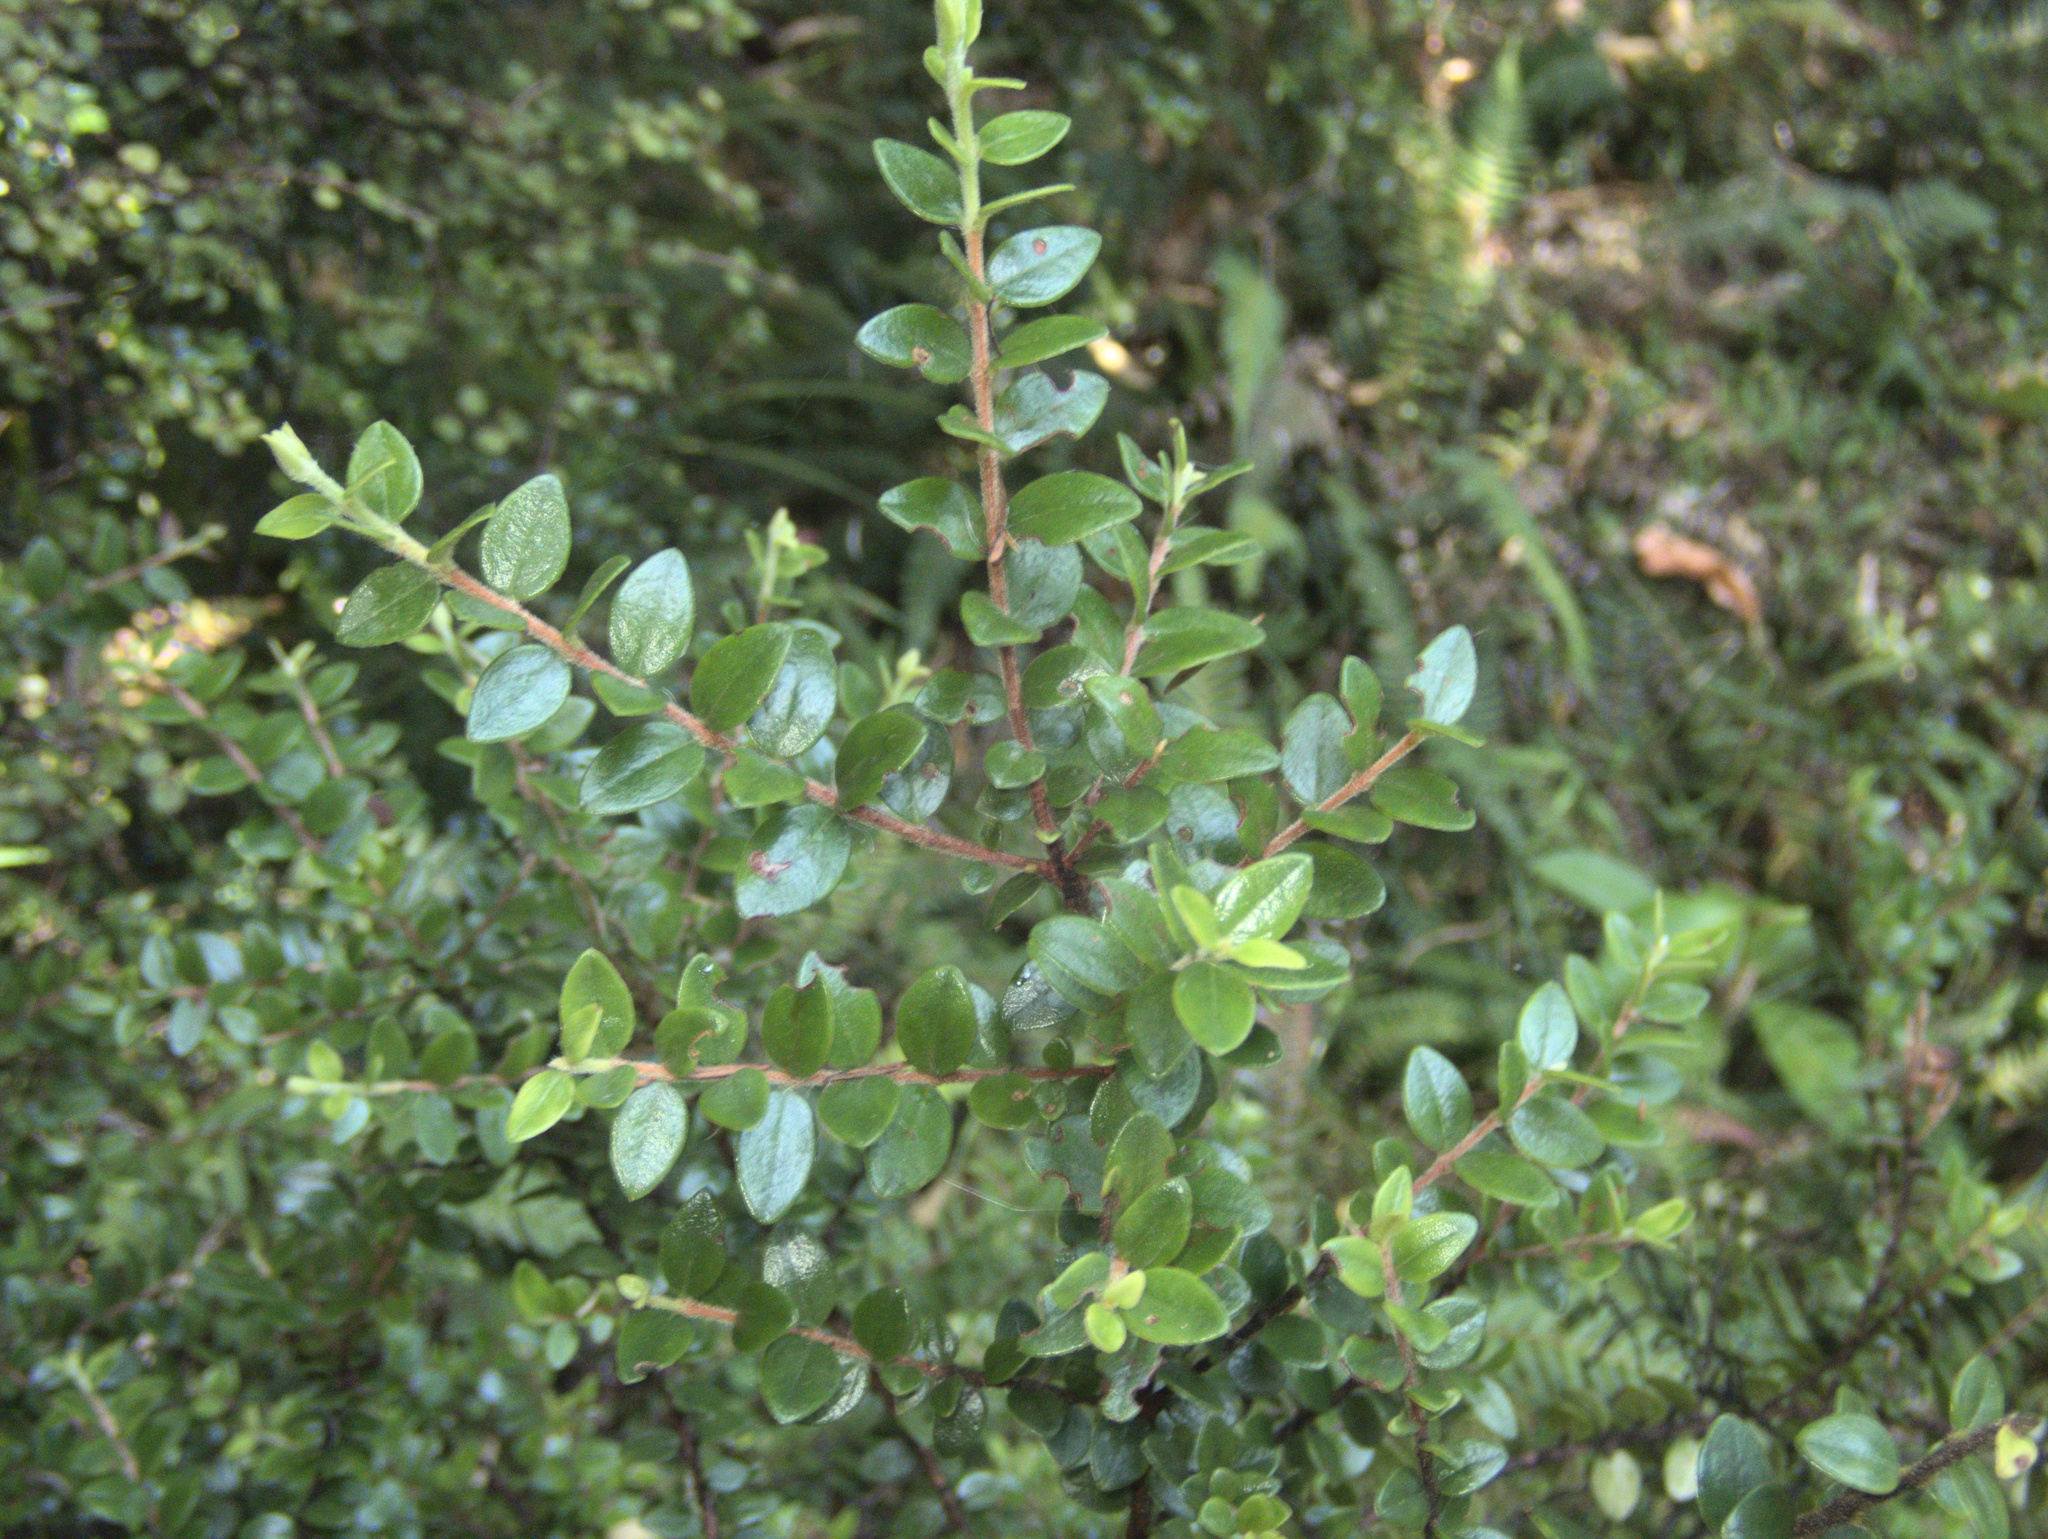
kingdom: Plantae
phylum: Tracheophyta
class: Magnoliopsida
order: Myrtales
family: Myrtaceae
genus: Metrosideros
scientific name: Metrosideros perforata
